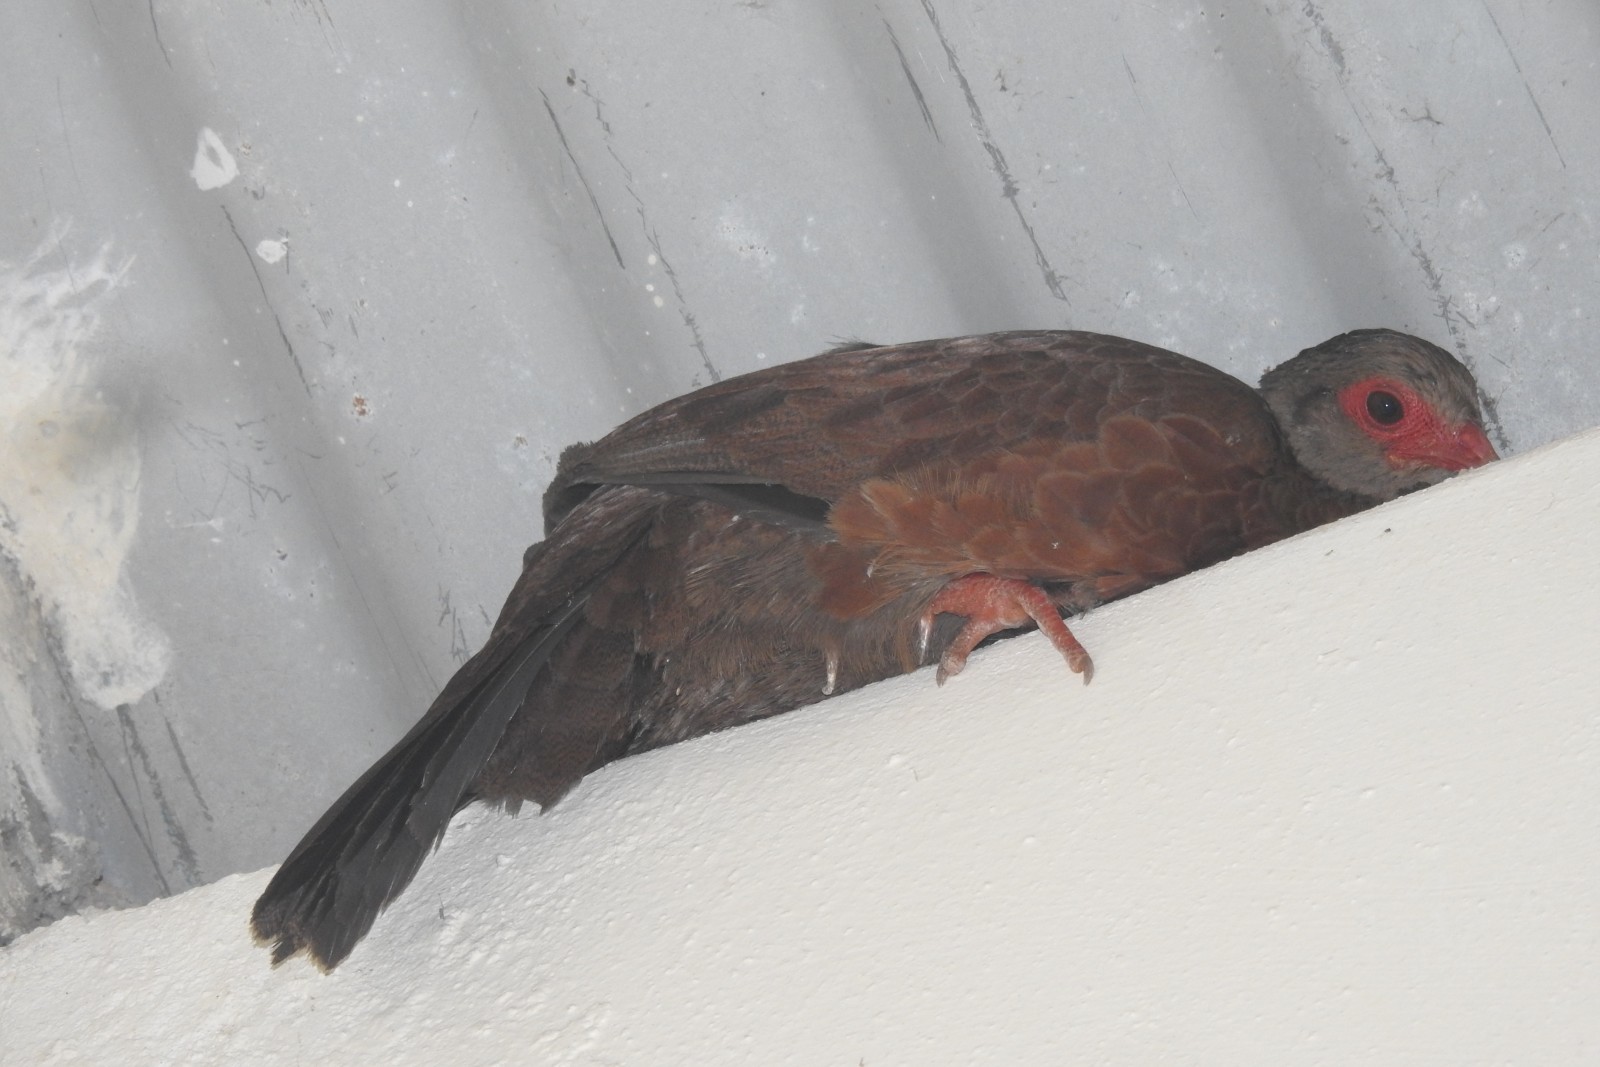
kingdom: Animalia
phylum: Chordata
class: Aves
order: Galliformes
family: Phasianidae
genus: Galloperdix
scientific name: Galloperdix spadicea
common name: Red spurfowl
